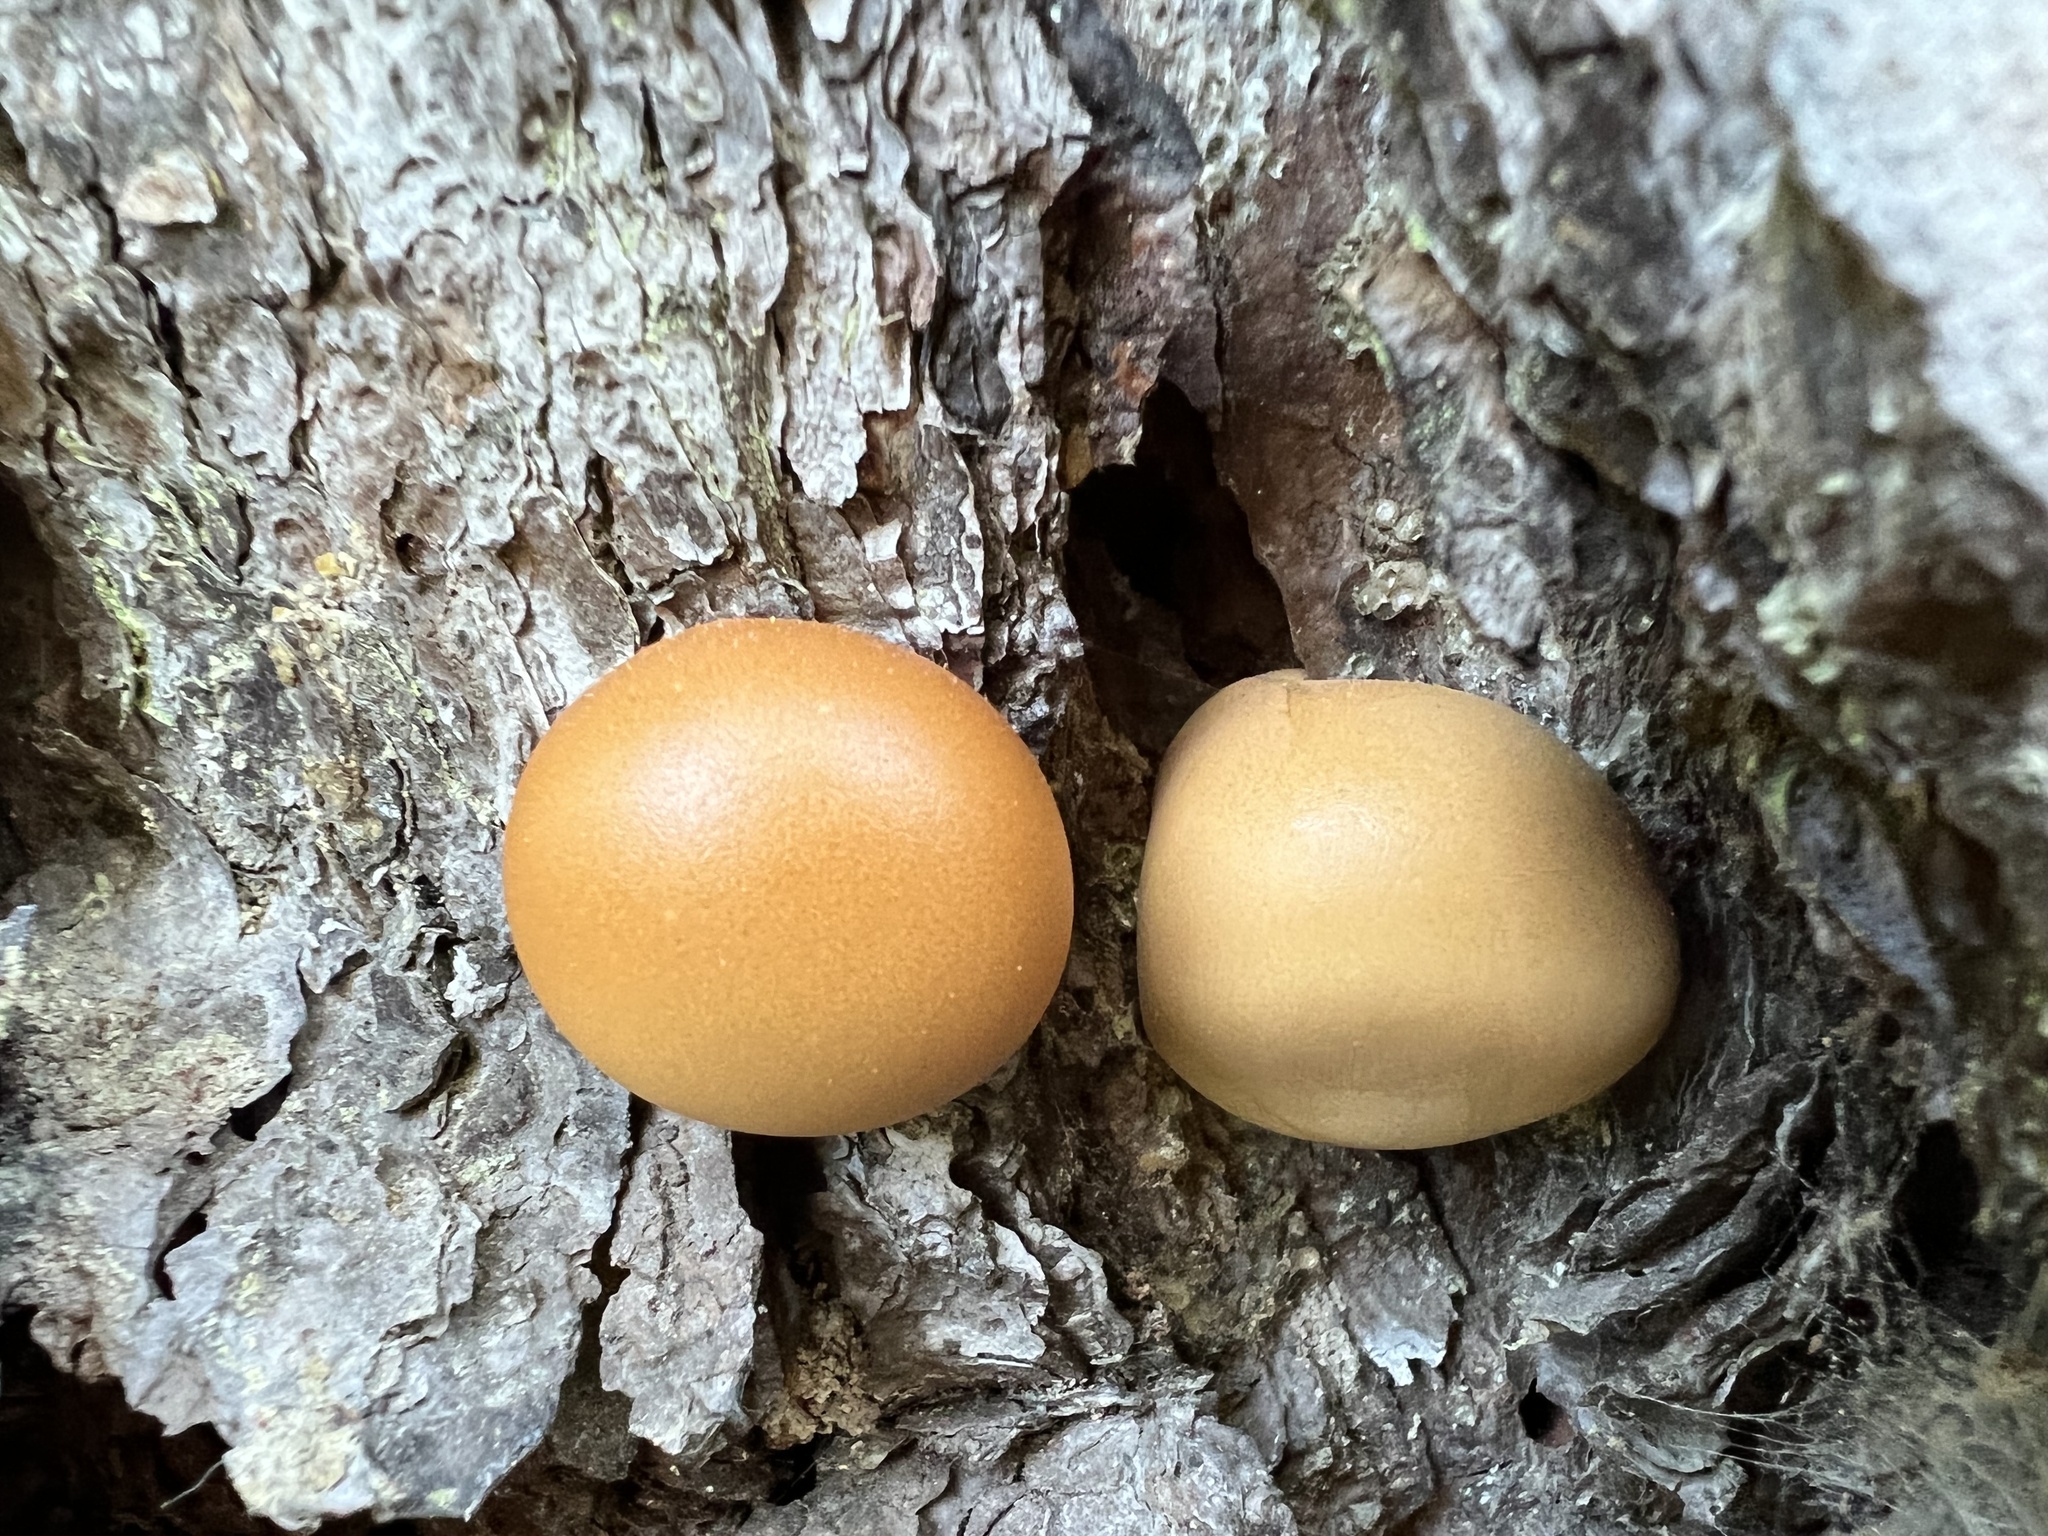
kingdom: Fungi
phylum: Basidiomycota
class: Agaricomycetes
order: Polyporales
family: Polyporaceae
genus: Cryptoporus
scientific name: Cryptoporus volvatus
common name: Veiled polypore
